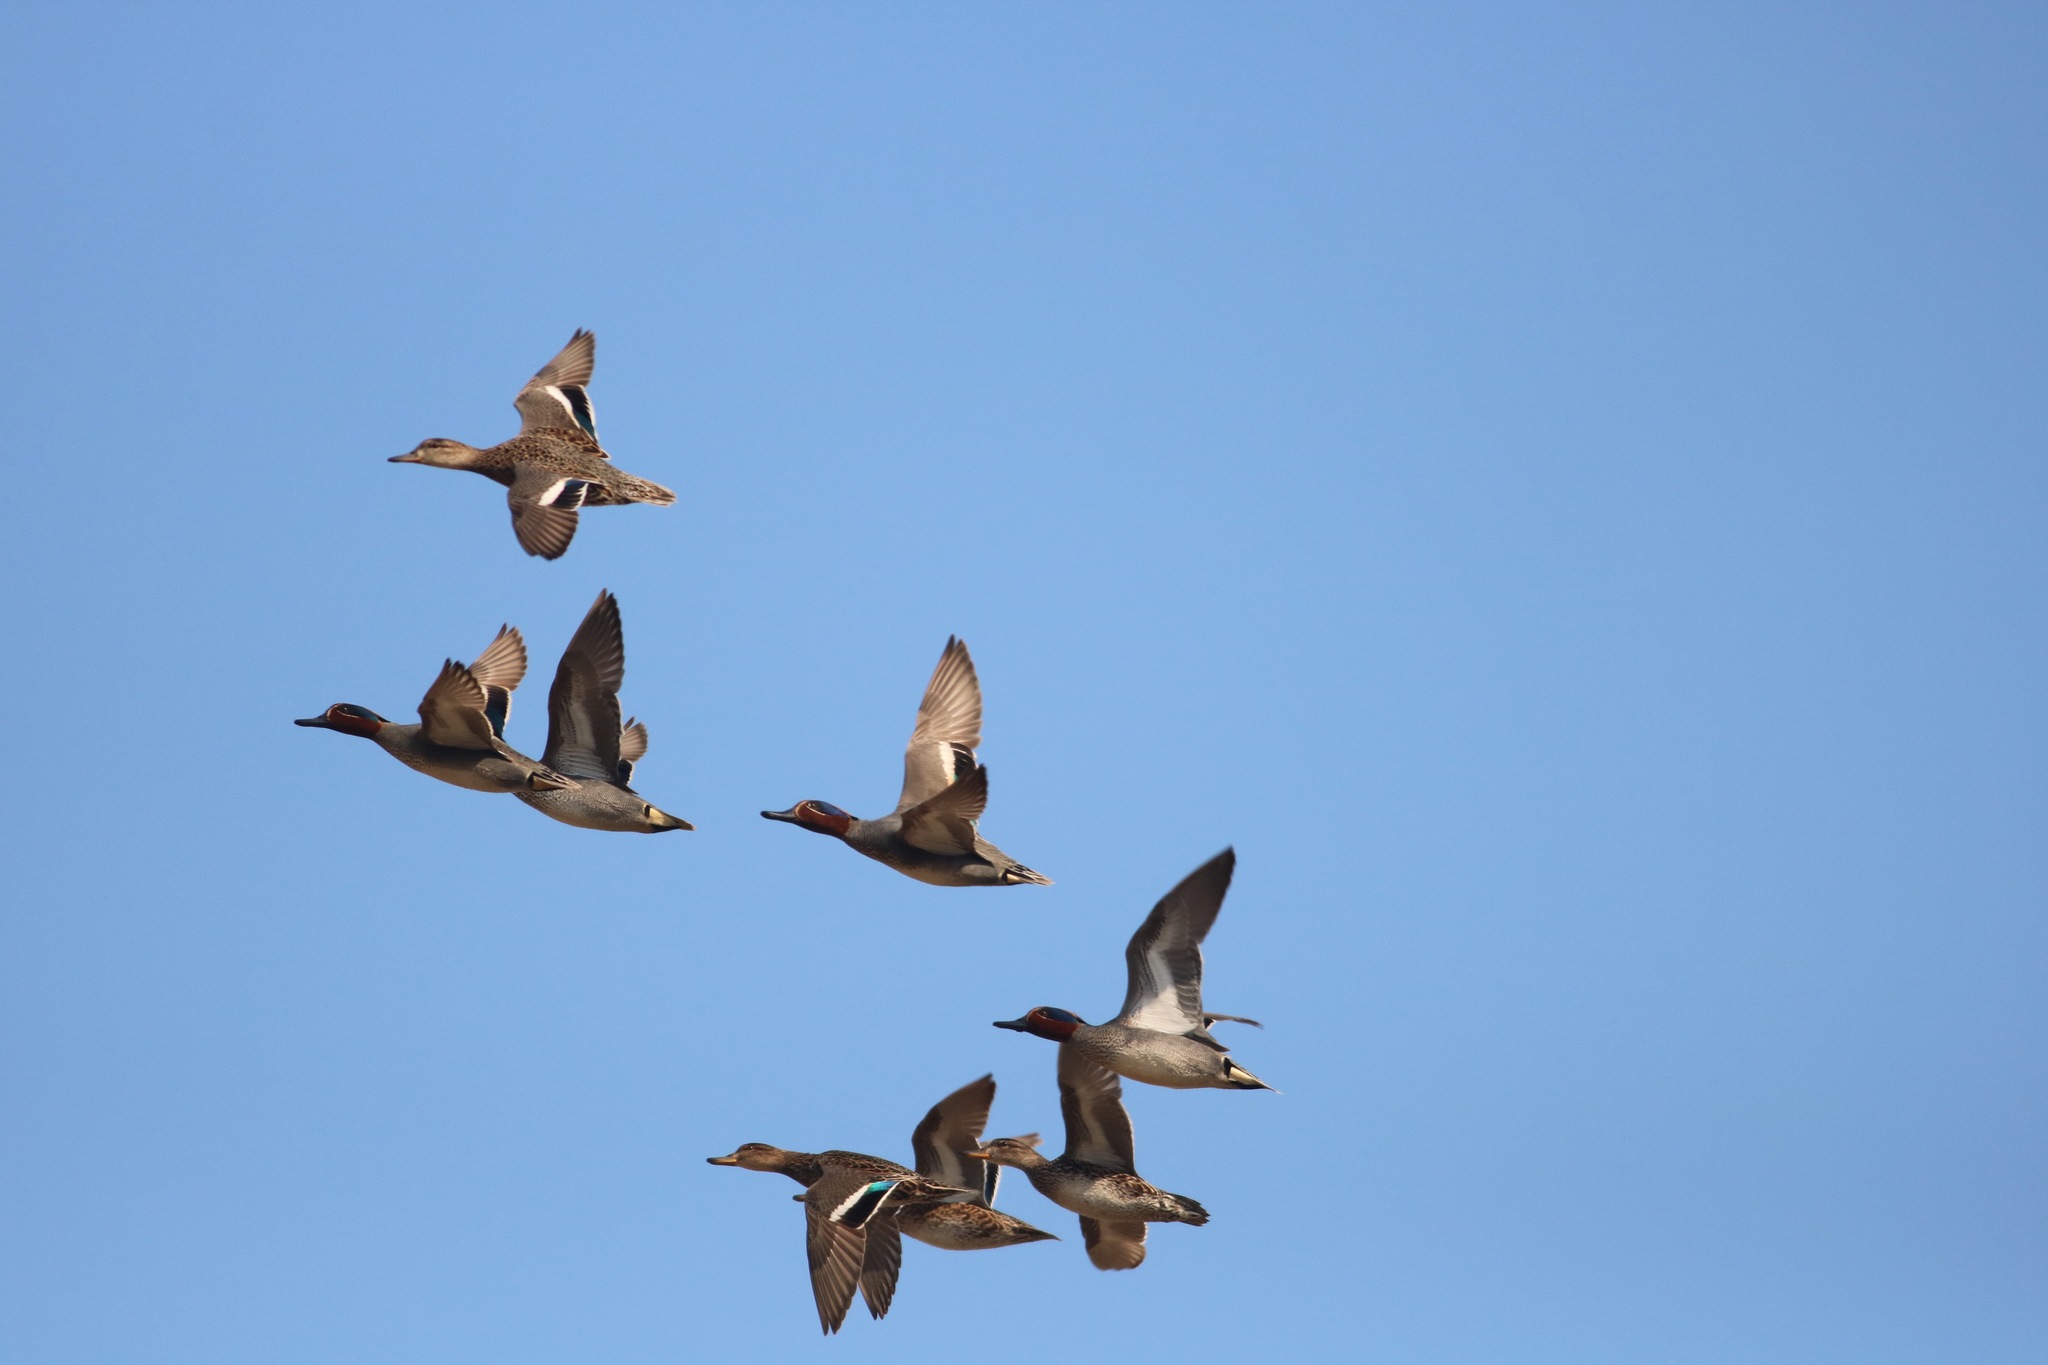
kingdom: Animalia
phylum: Chordata
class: Aves
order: Anseriformes
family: Anatidae
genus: Anas
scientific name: Anas crecca
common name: Eurasian teal
